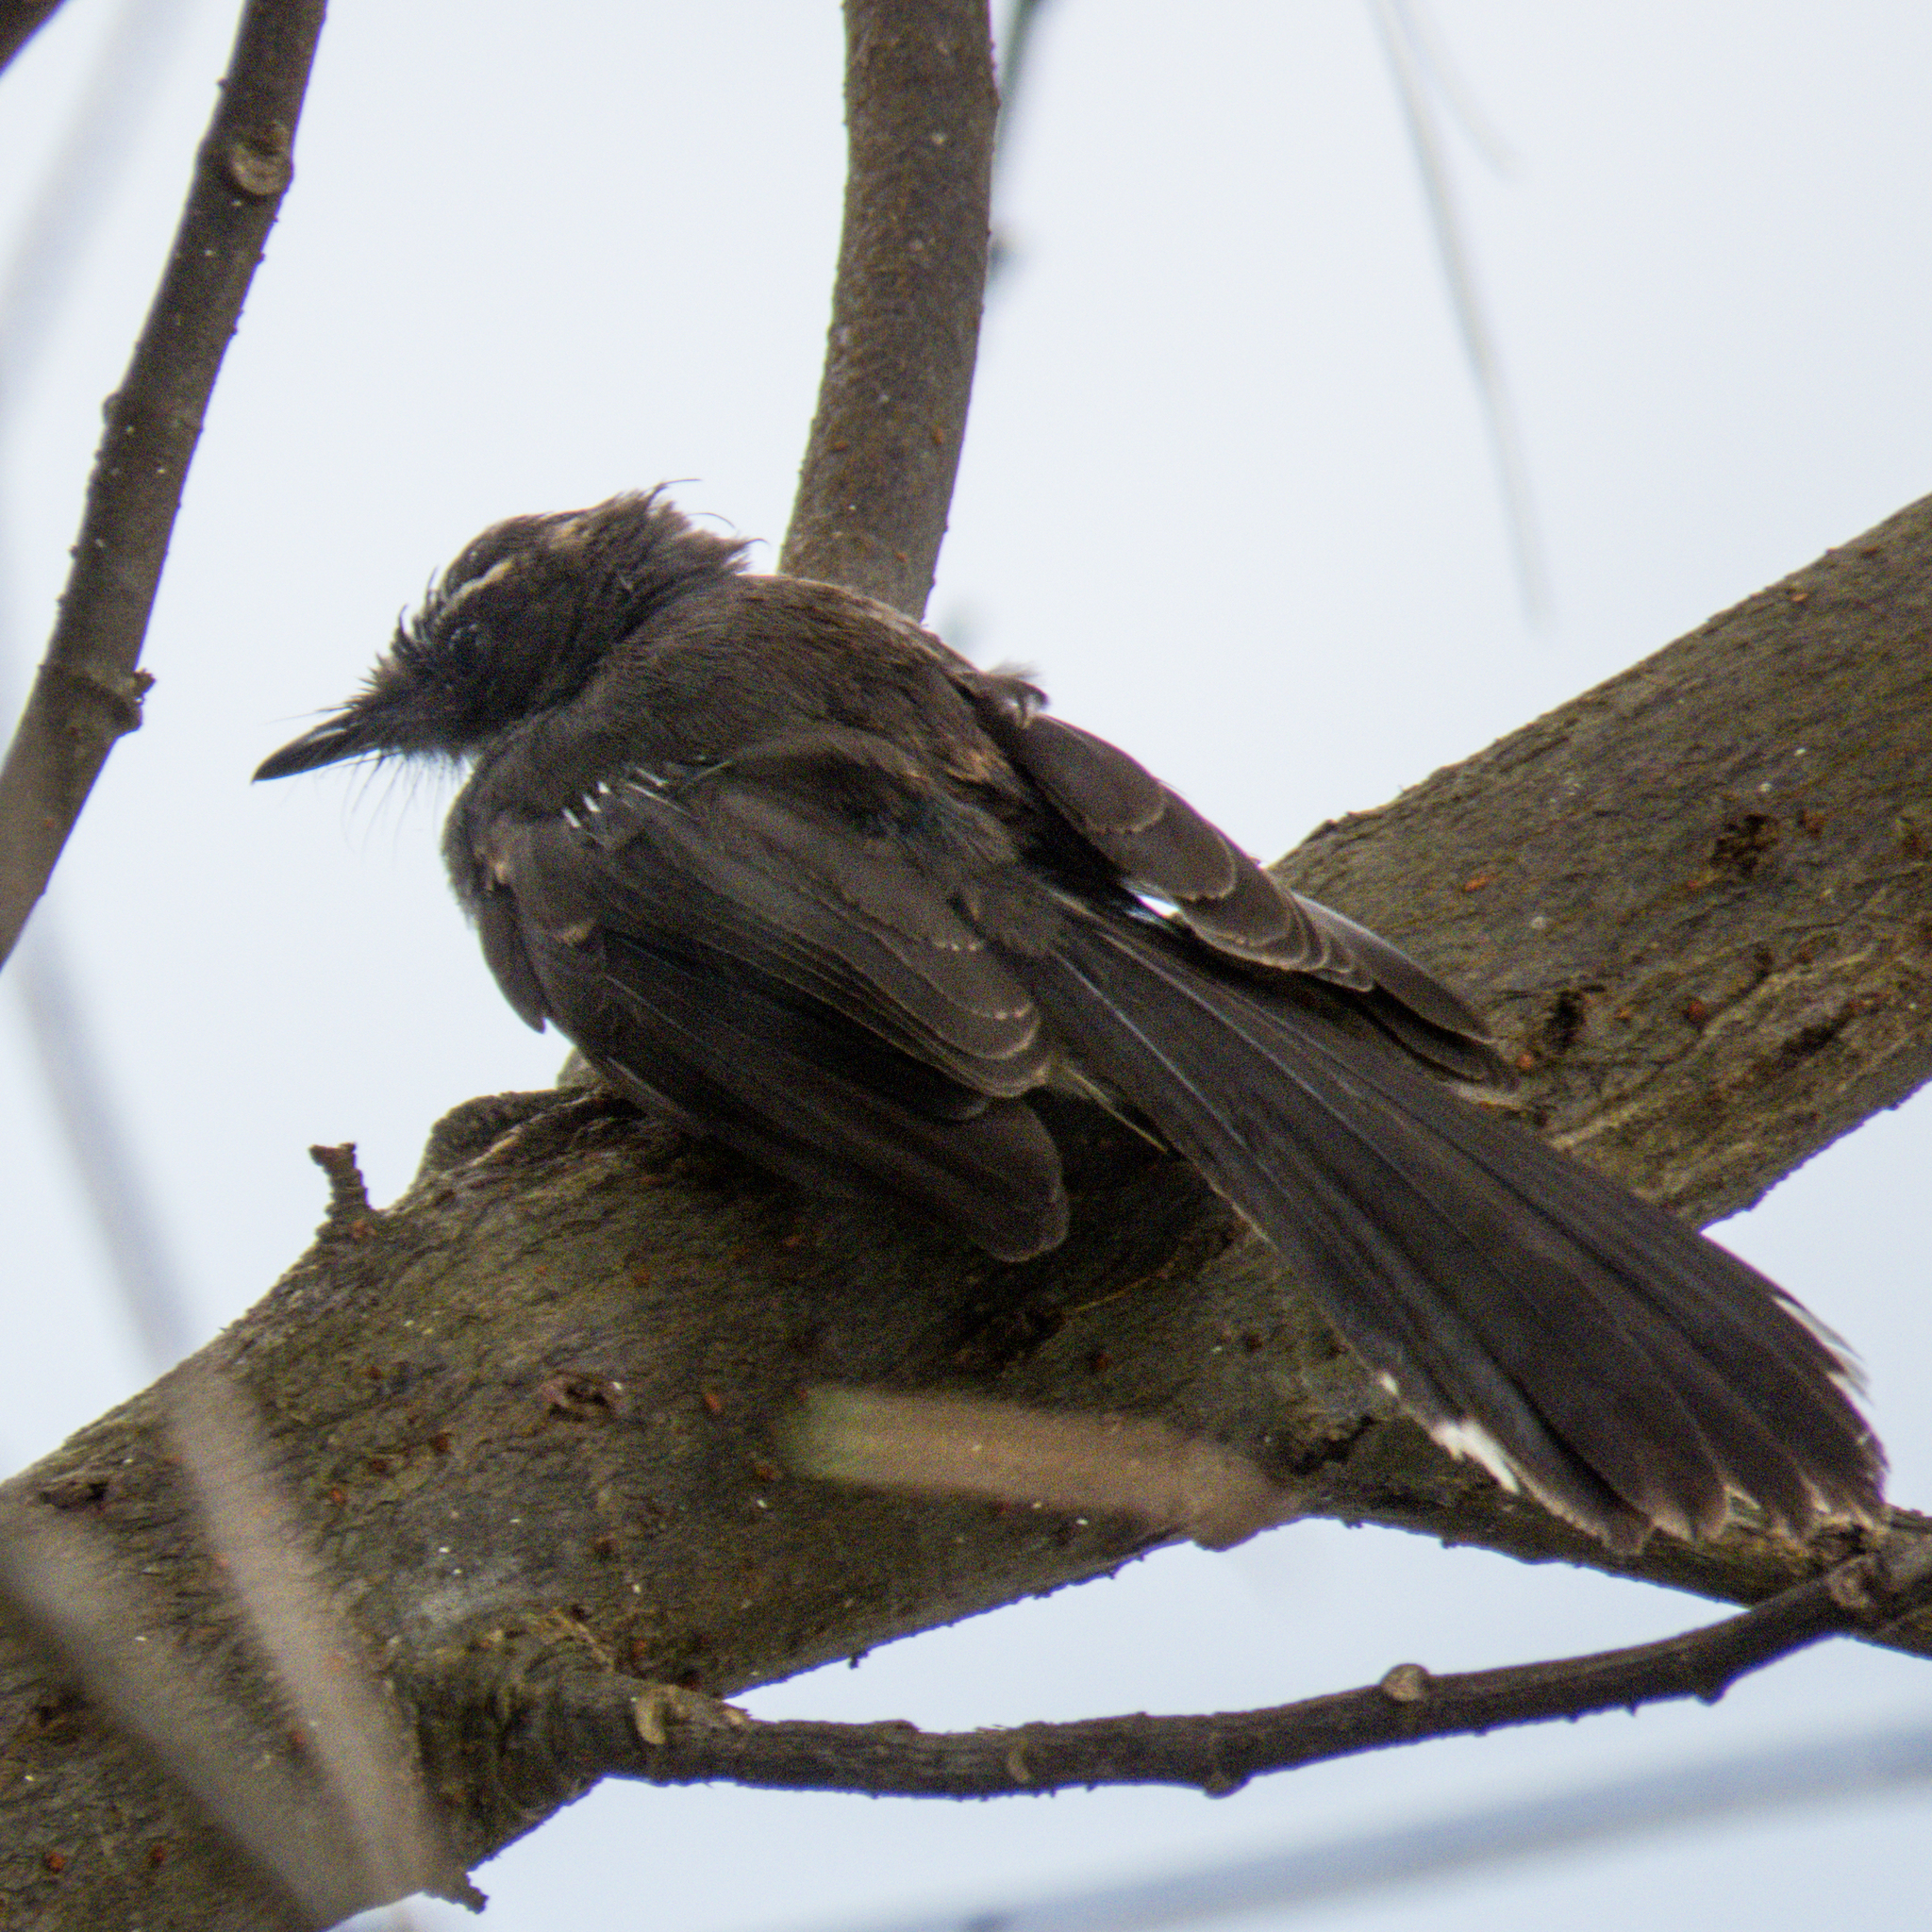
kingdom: Animalia
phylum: Chordata
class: Aves
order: Passeriformes
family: Rhipiduridae
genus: Rhipidura
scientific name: Rhipidura javanica
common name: Pied fantail
